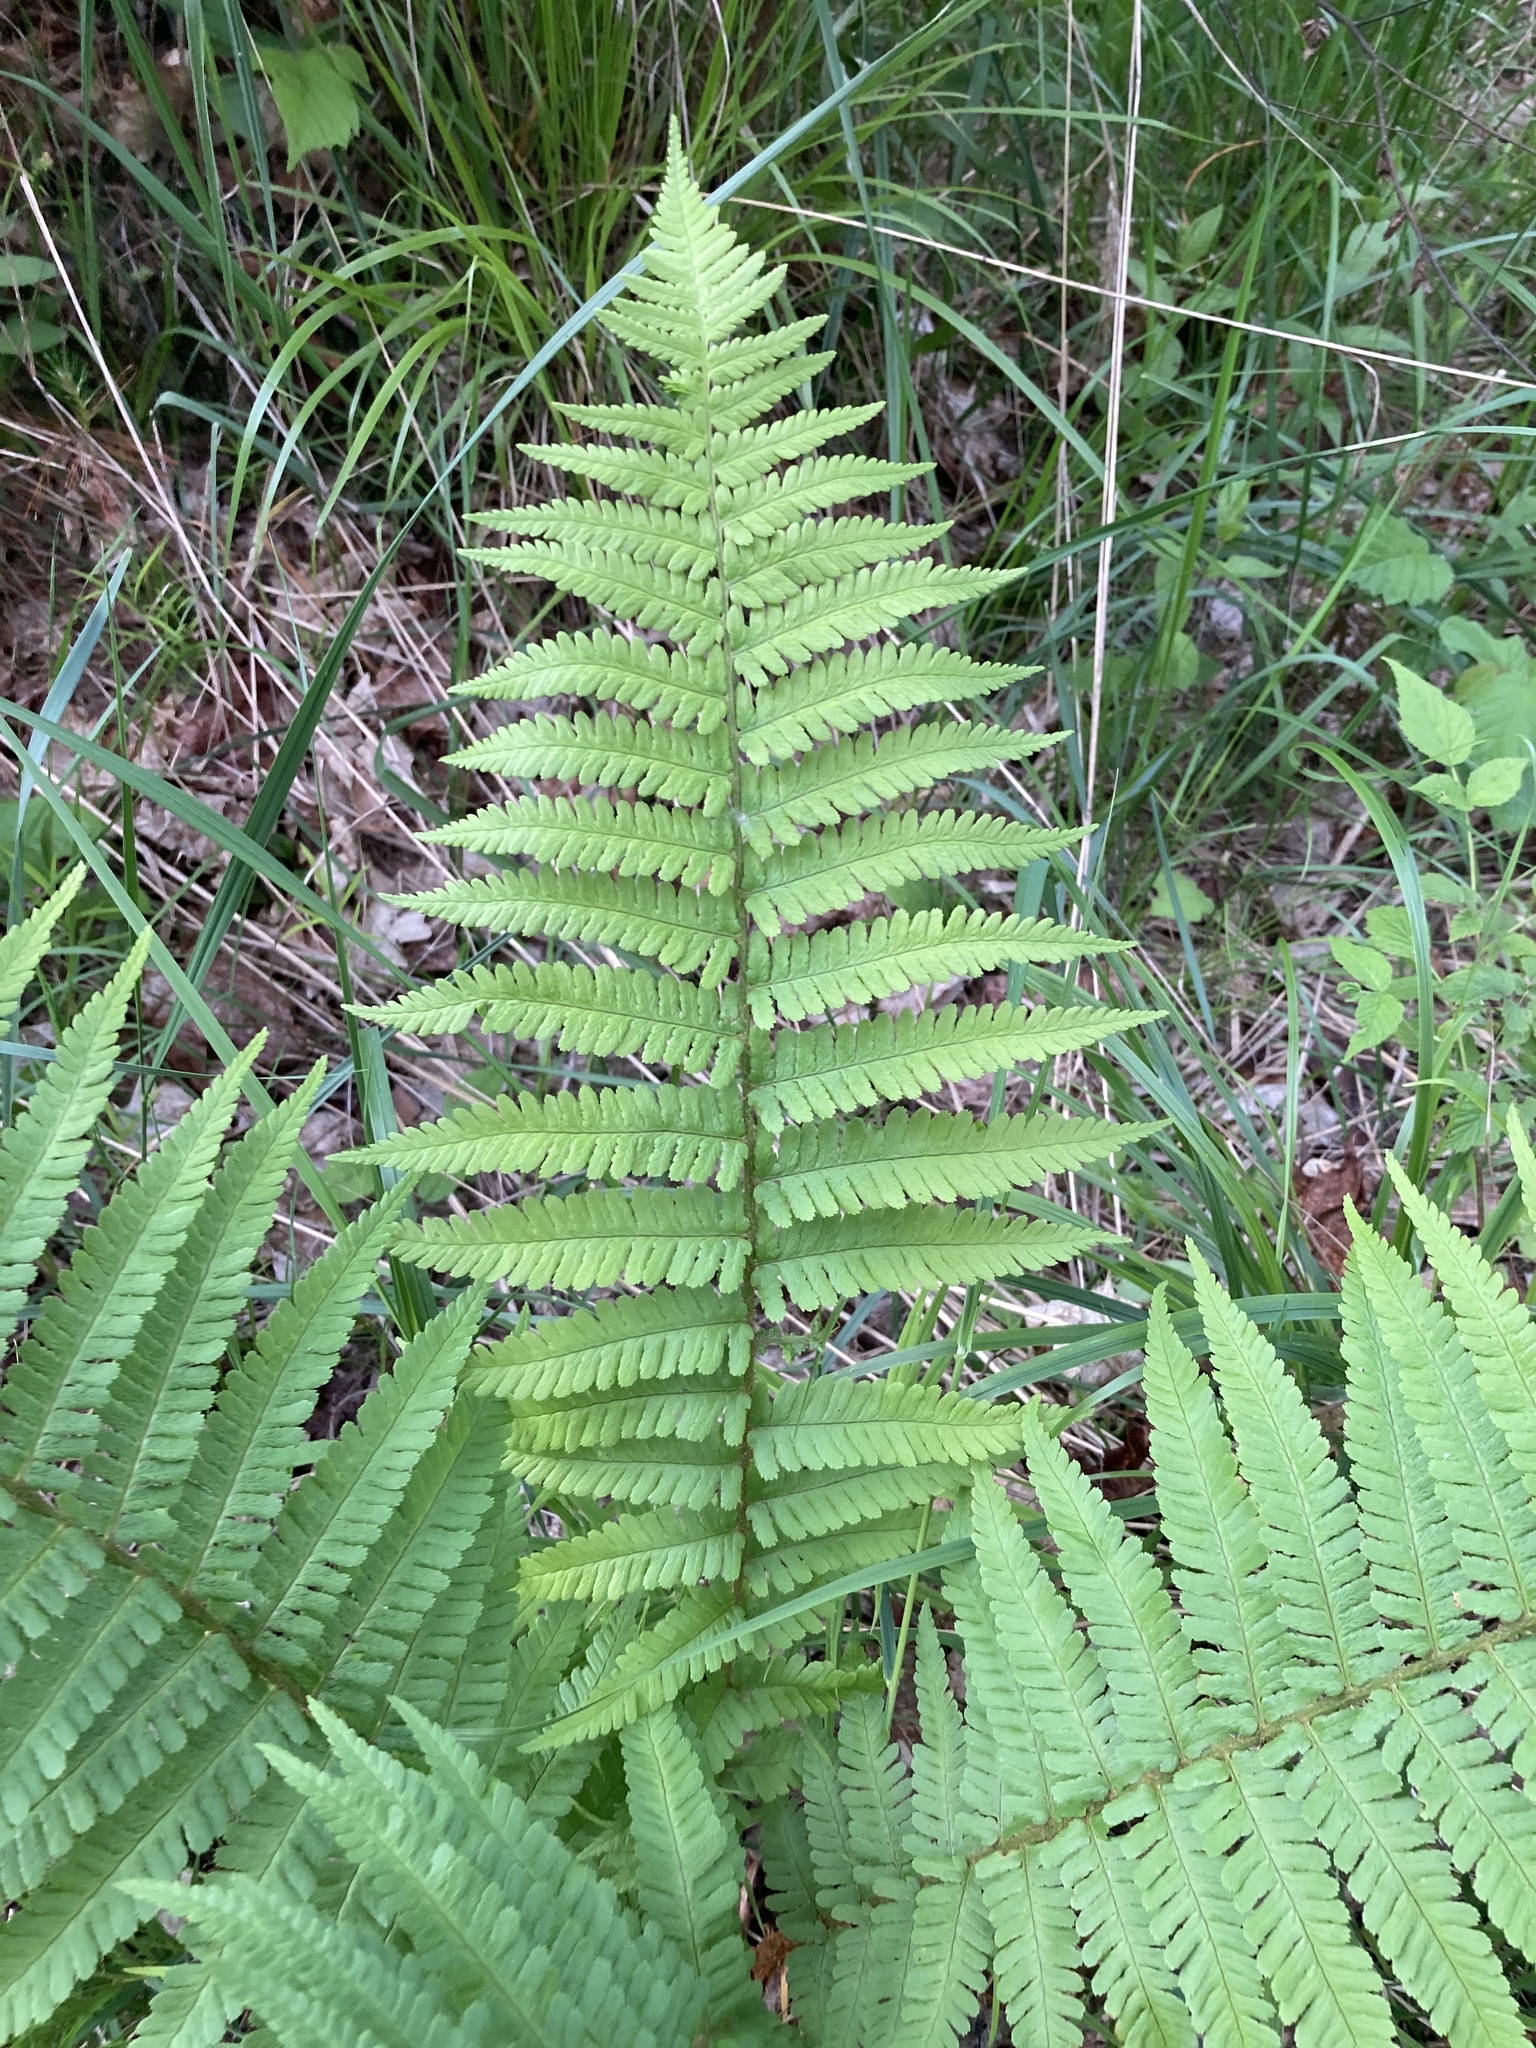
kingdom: Plantae
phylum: Tracheophyta
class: Polypodiopsida
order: Polypodiales
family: Dryopteridaceae
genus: Dryopteris
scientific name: Dryopteris filix-mas
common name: Male fern
